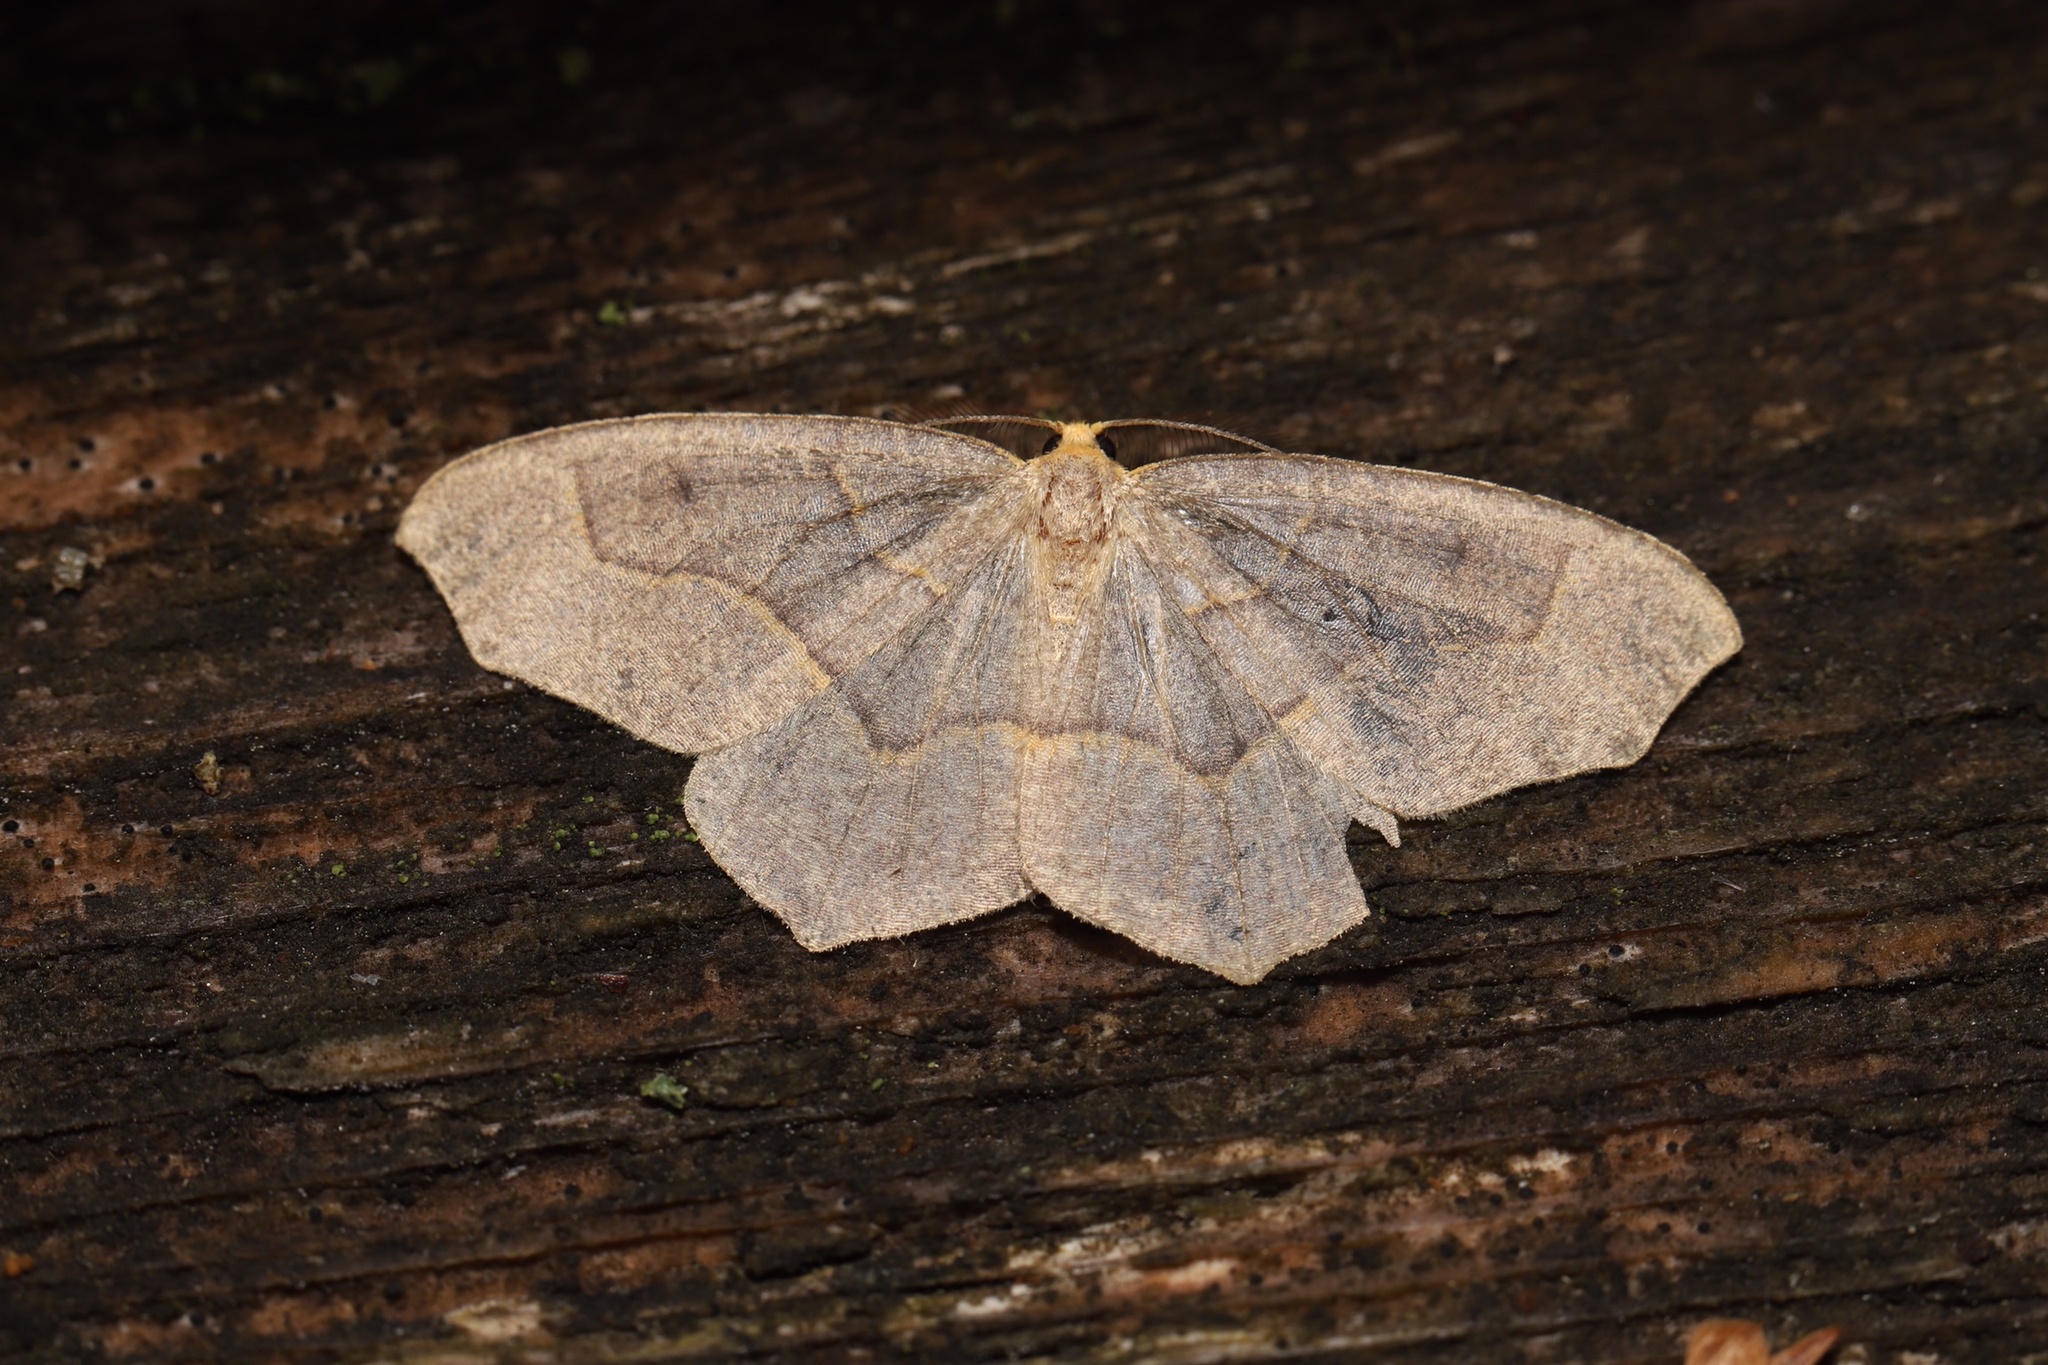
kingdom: Animalia
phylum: Arthropoda
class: Insecta
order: Lepidoptera
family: Geometridae
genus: Lambdina
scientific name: Lambdina fiscellaria
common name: Hemlock looper
